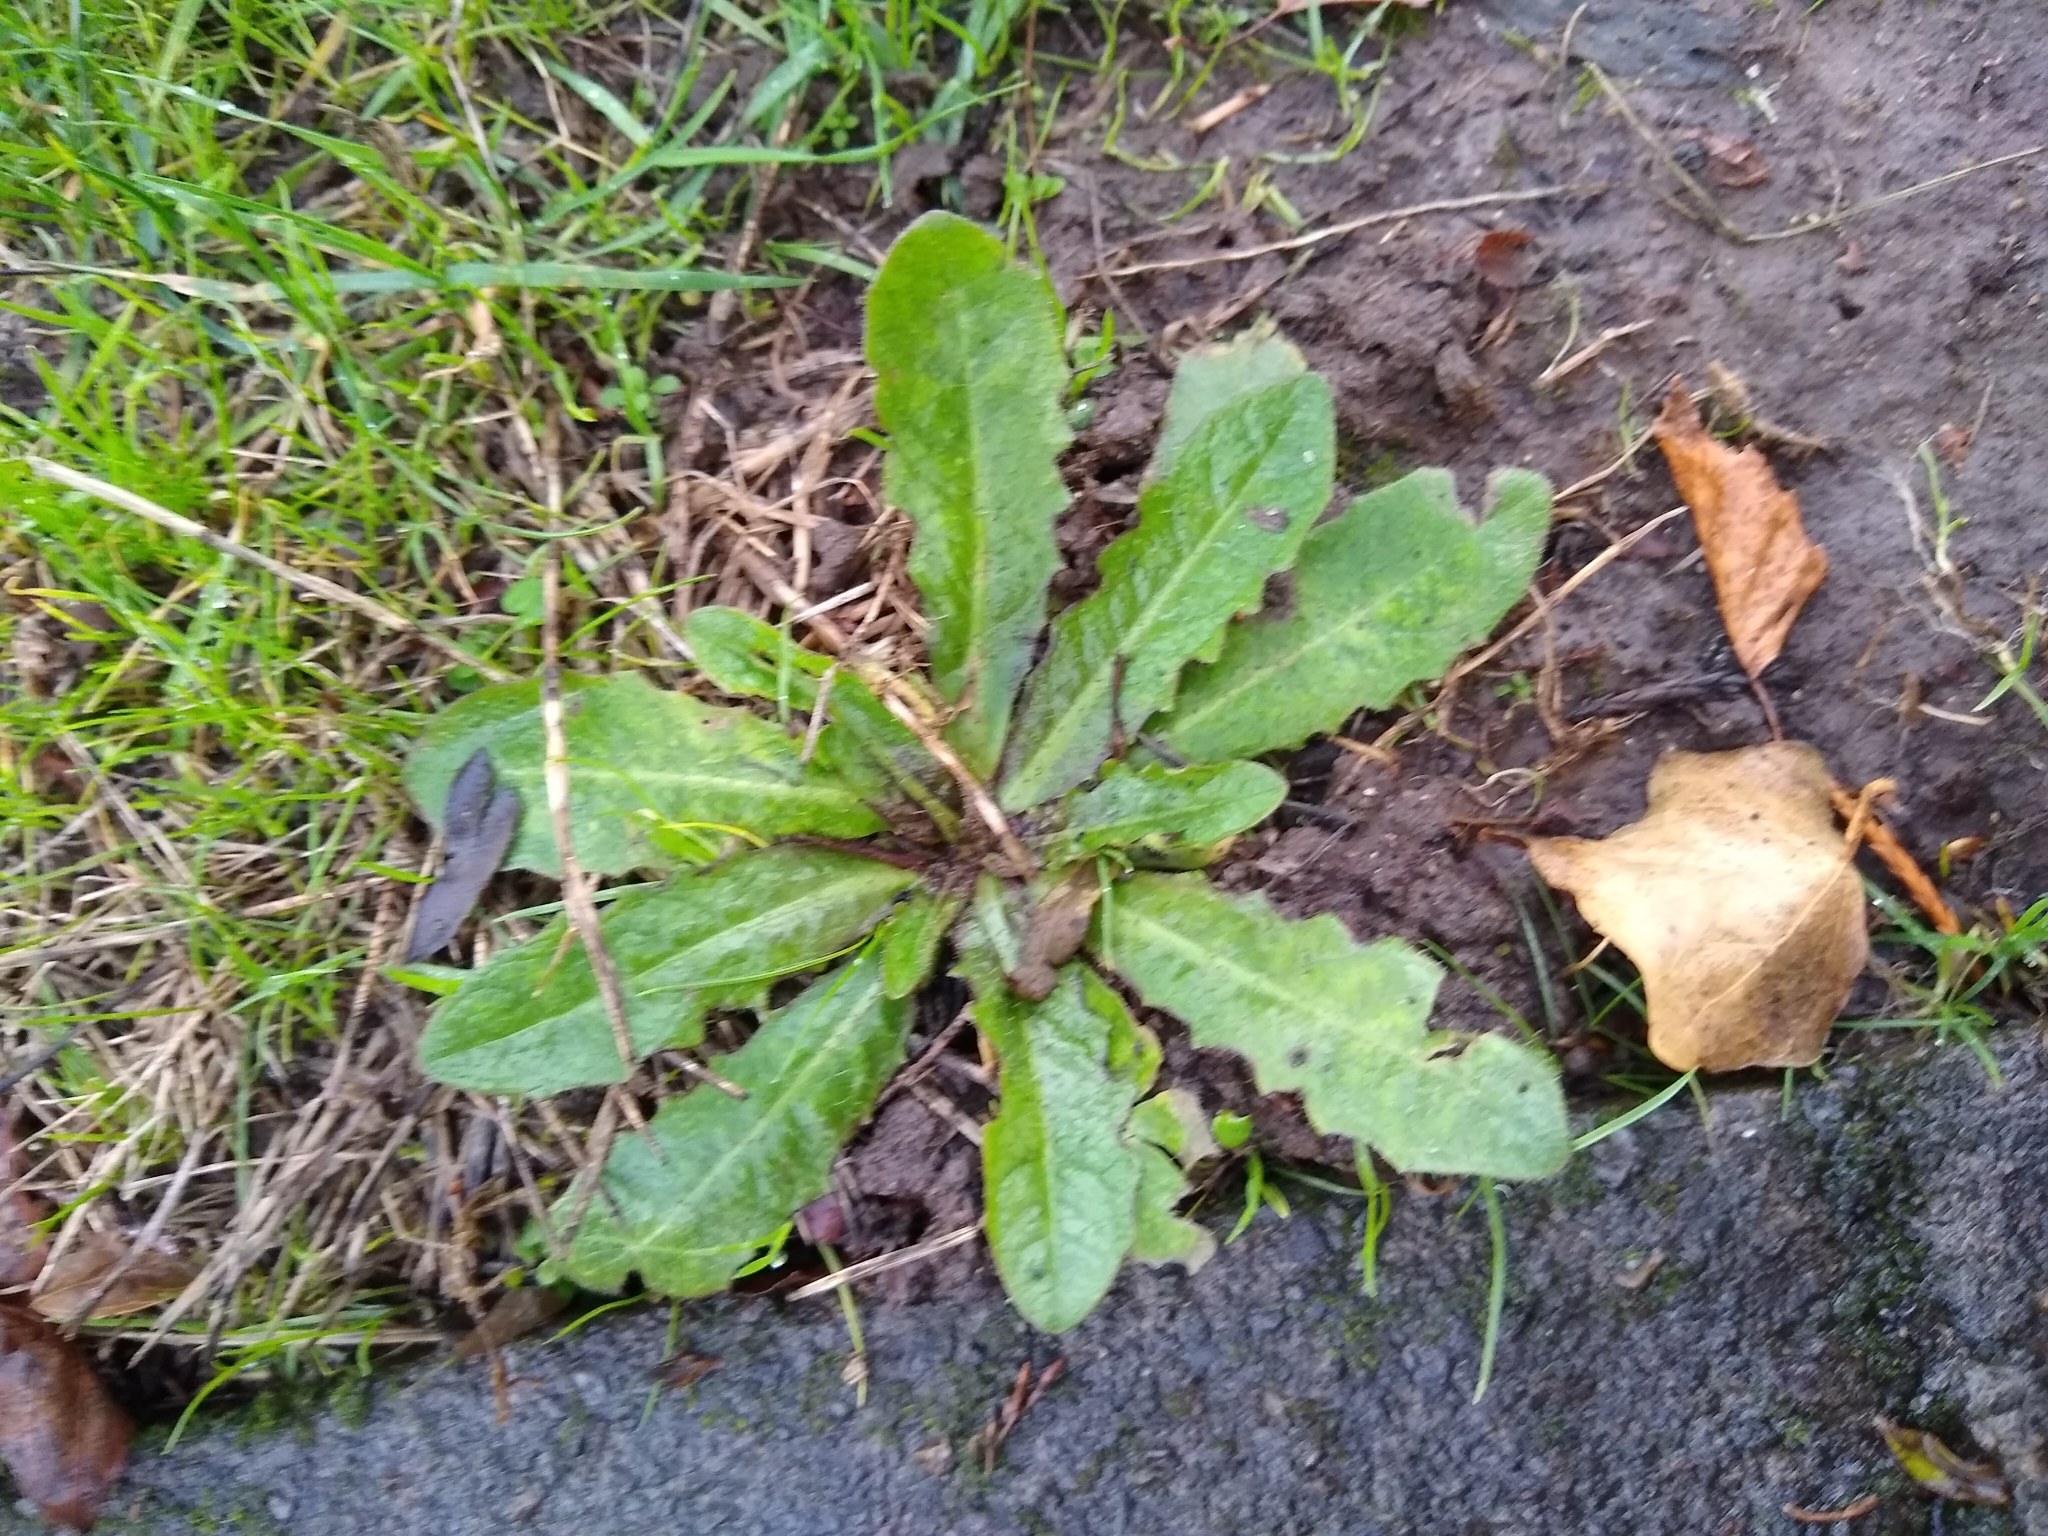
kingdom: Plantae
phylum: Tracheophyta
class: Magnoliopsida
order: Asterales
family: Asteraceae
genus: Hypochaeris
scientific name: Hypochaeris radicata
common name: Flatweed
